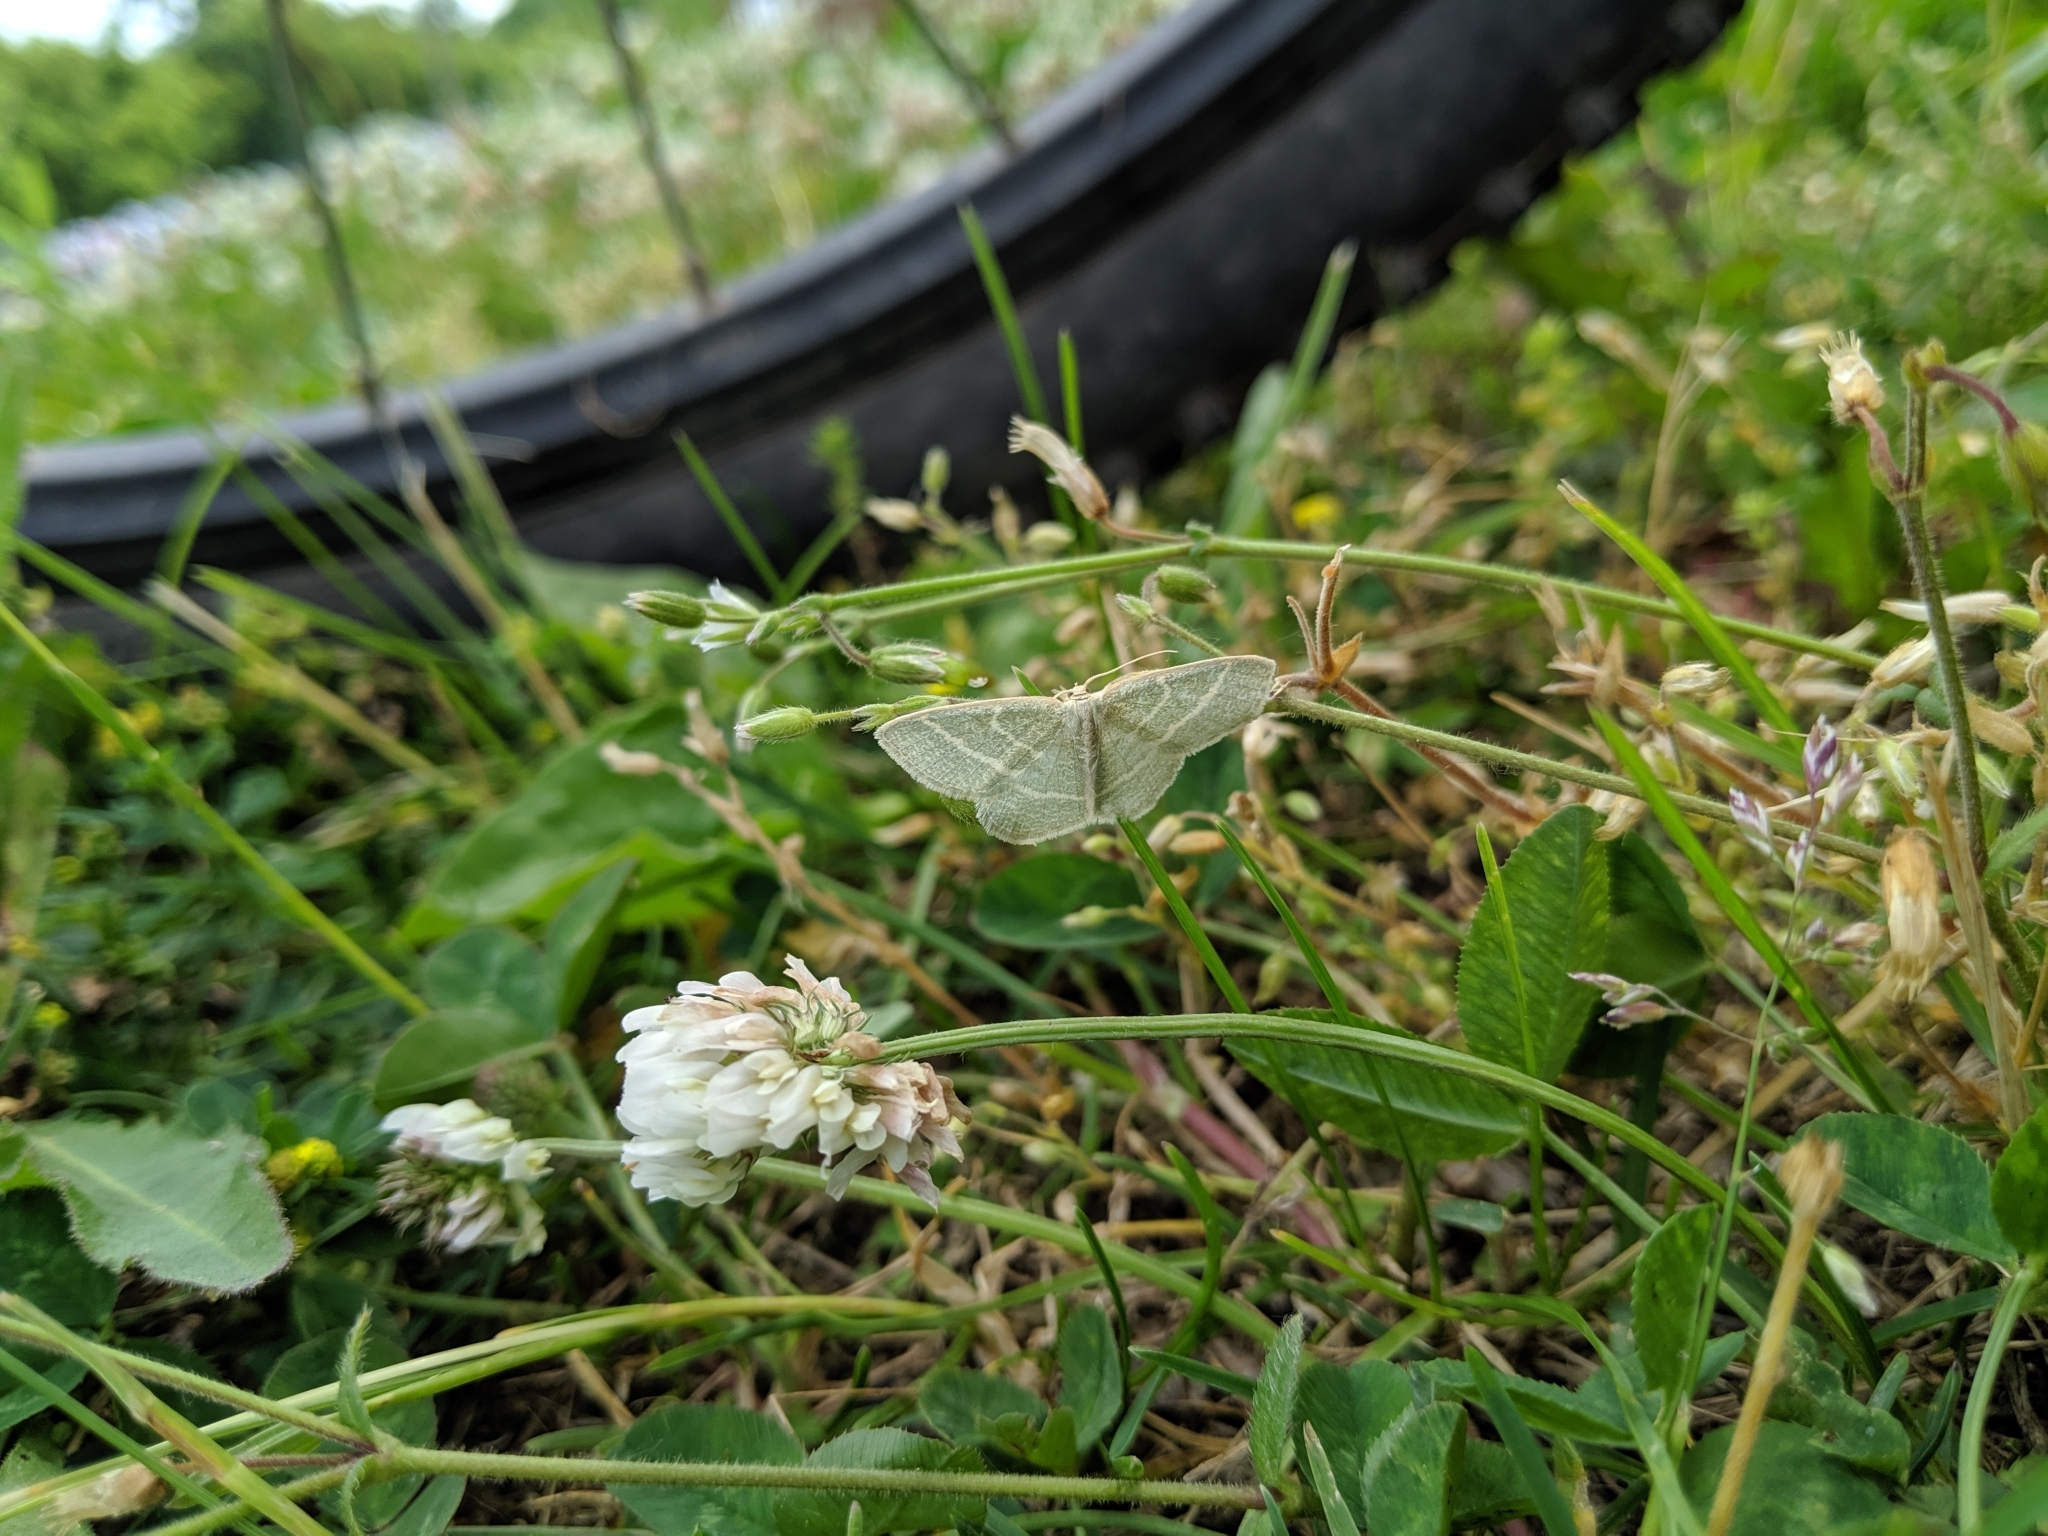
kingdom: Animalia
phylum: Arthropoda
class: Insecta
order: Lepidoptera
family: Geometridae
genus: Chlorochlamys
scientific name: Chlorochlamys chloroleucaria
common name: Blackberry looper
